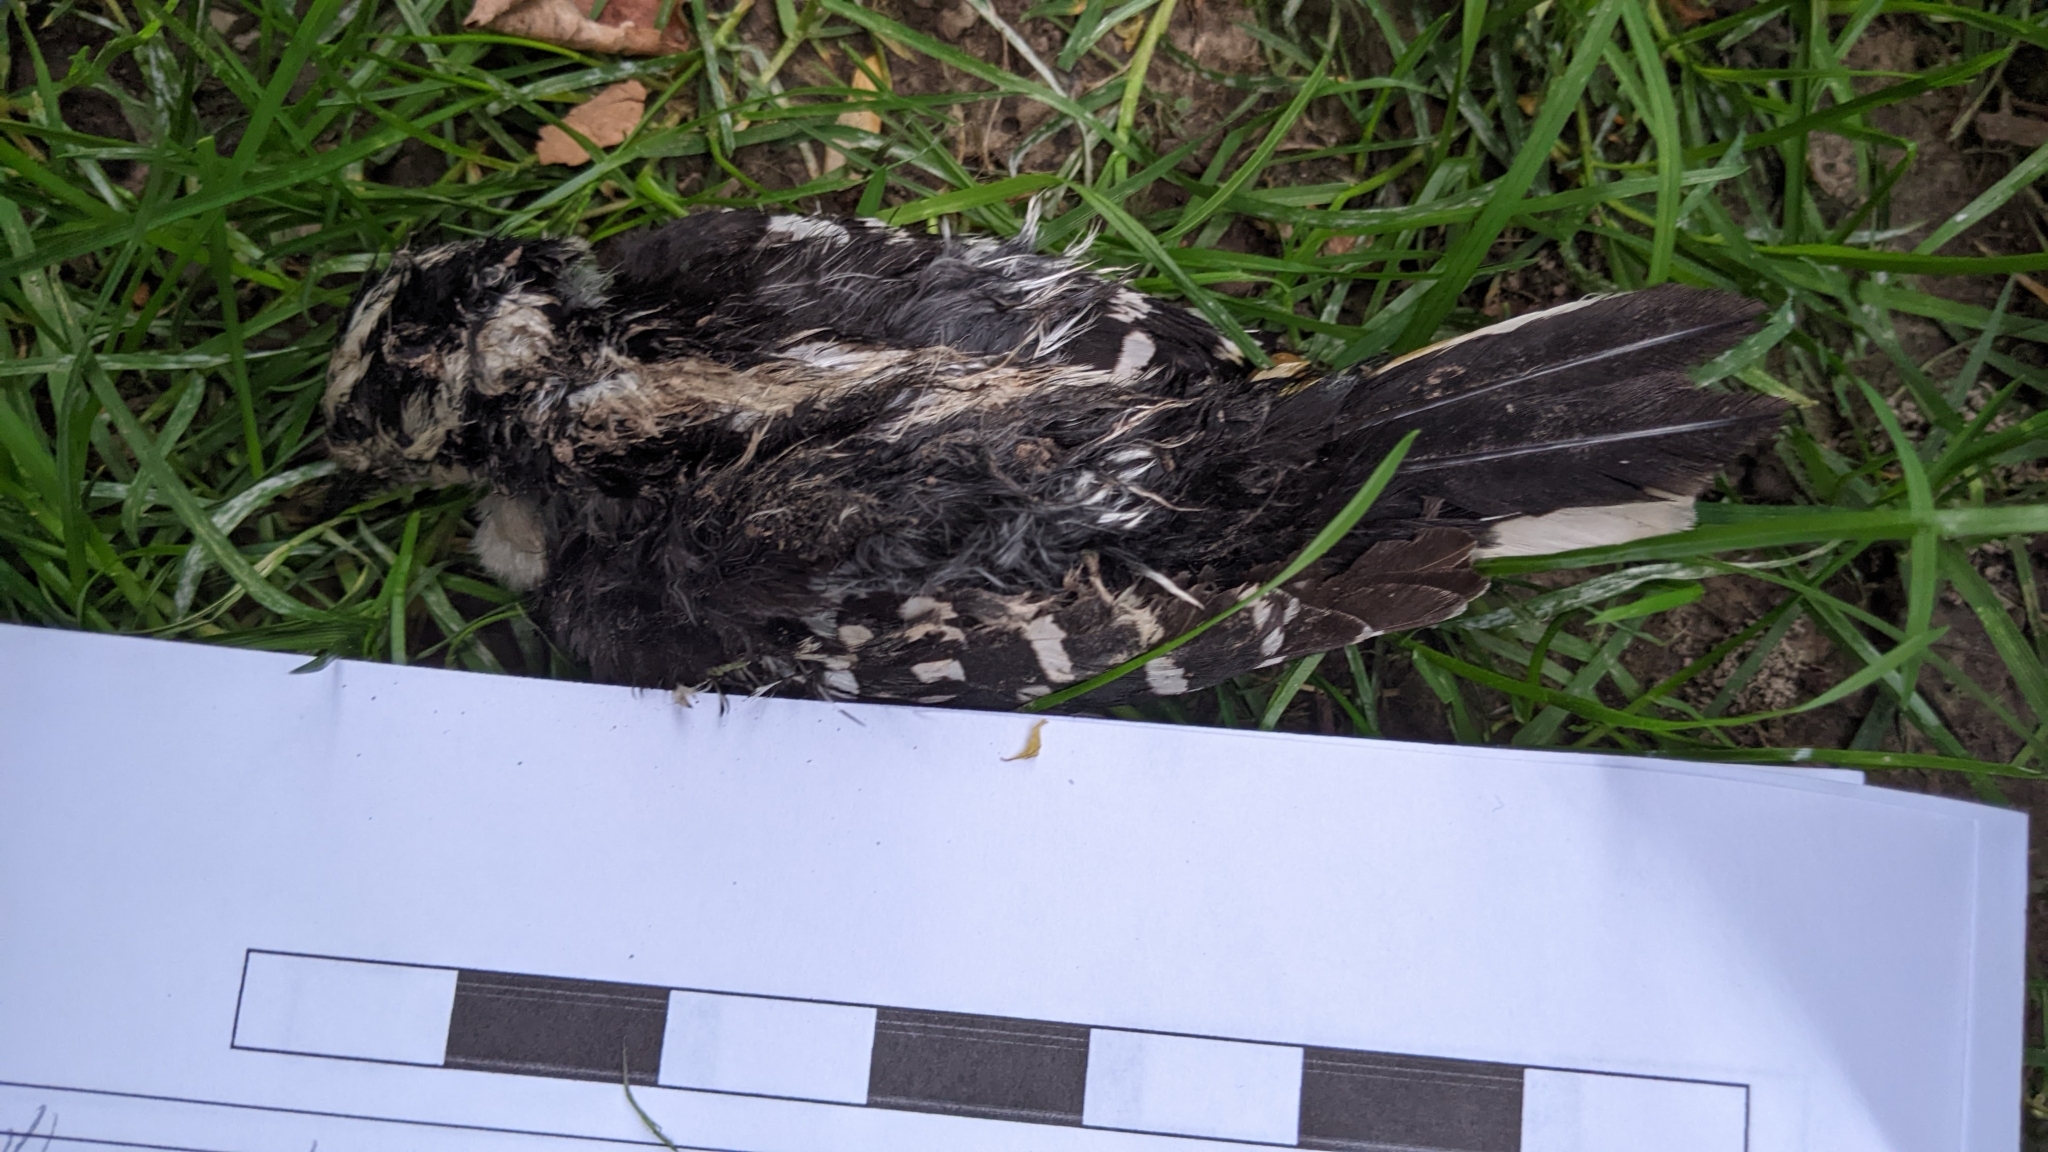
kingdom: Animalia
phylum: Chordata
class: Aves
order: Piciformes
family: Picidae
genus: Dryobates
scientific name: Dryobates pubescens
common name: Downy woodpecker
